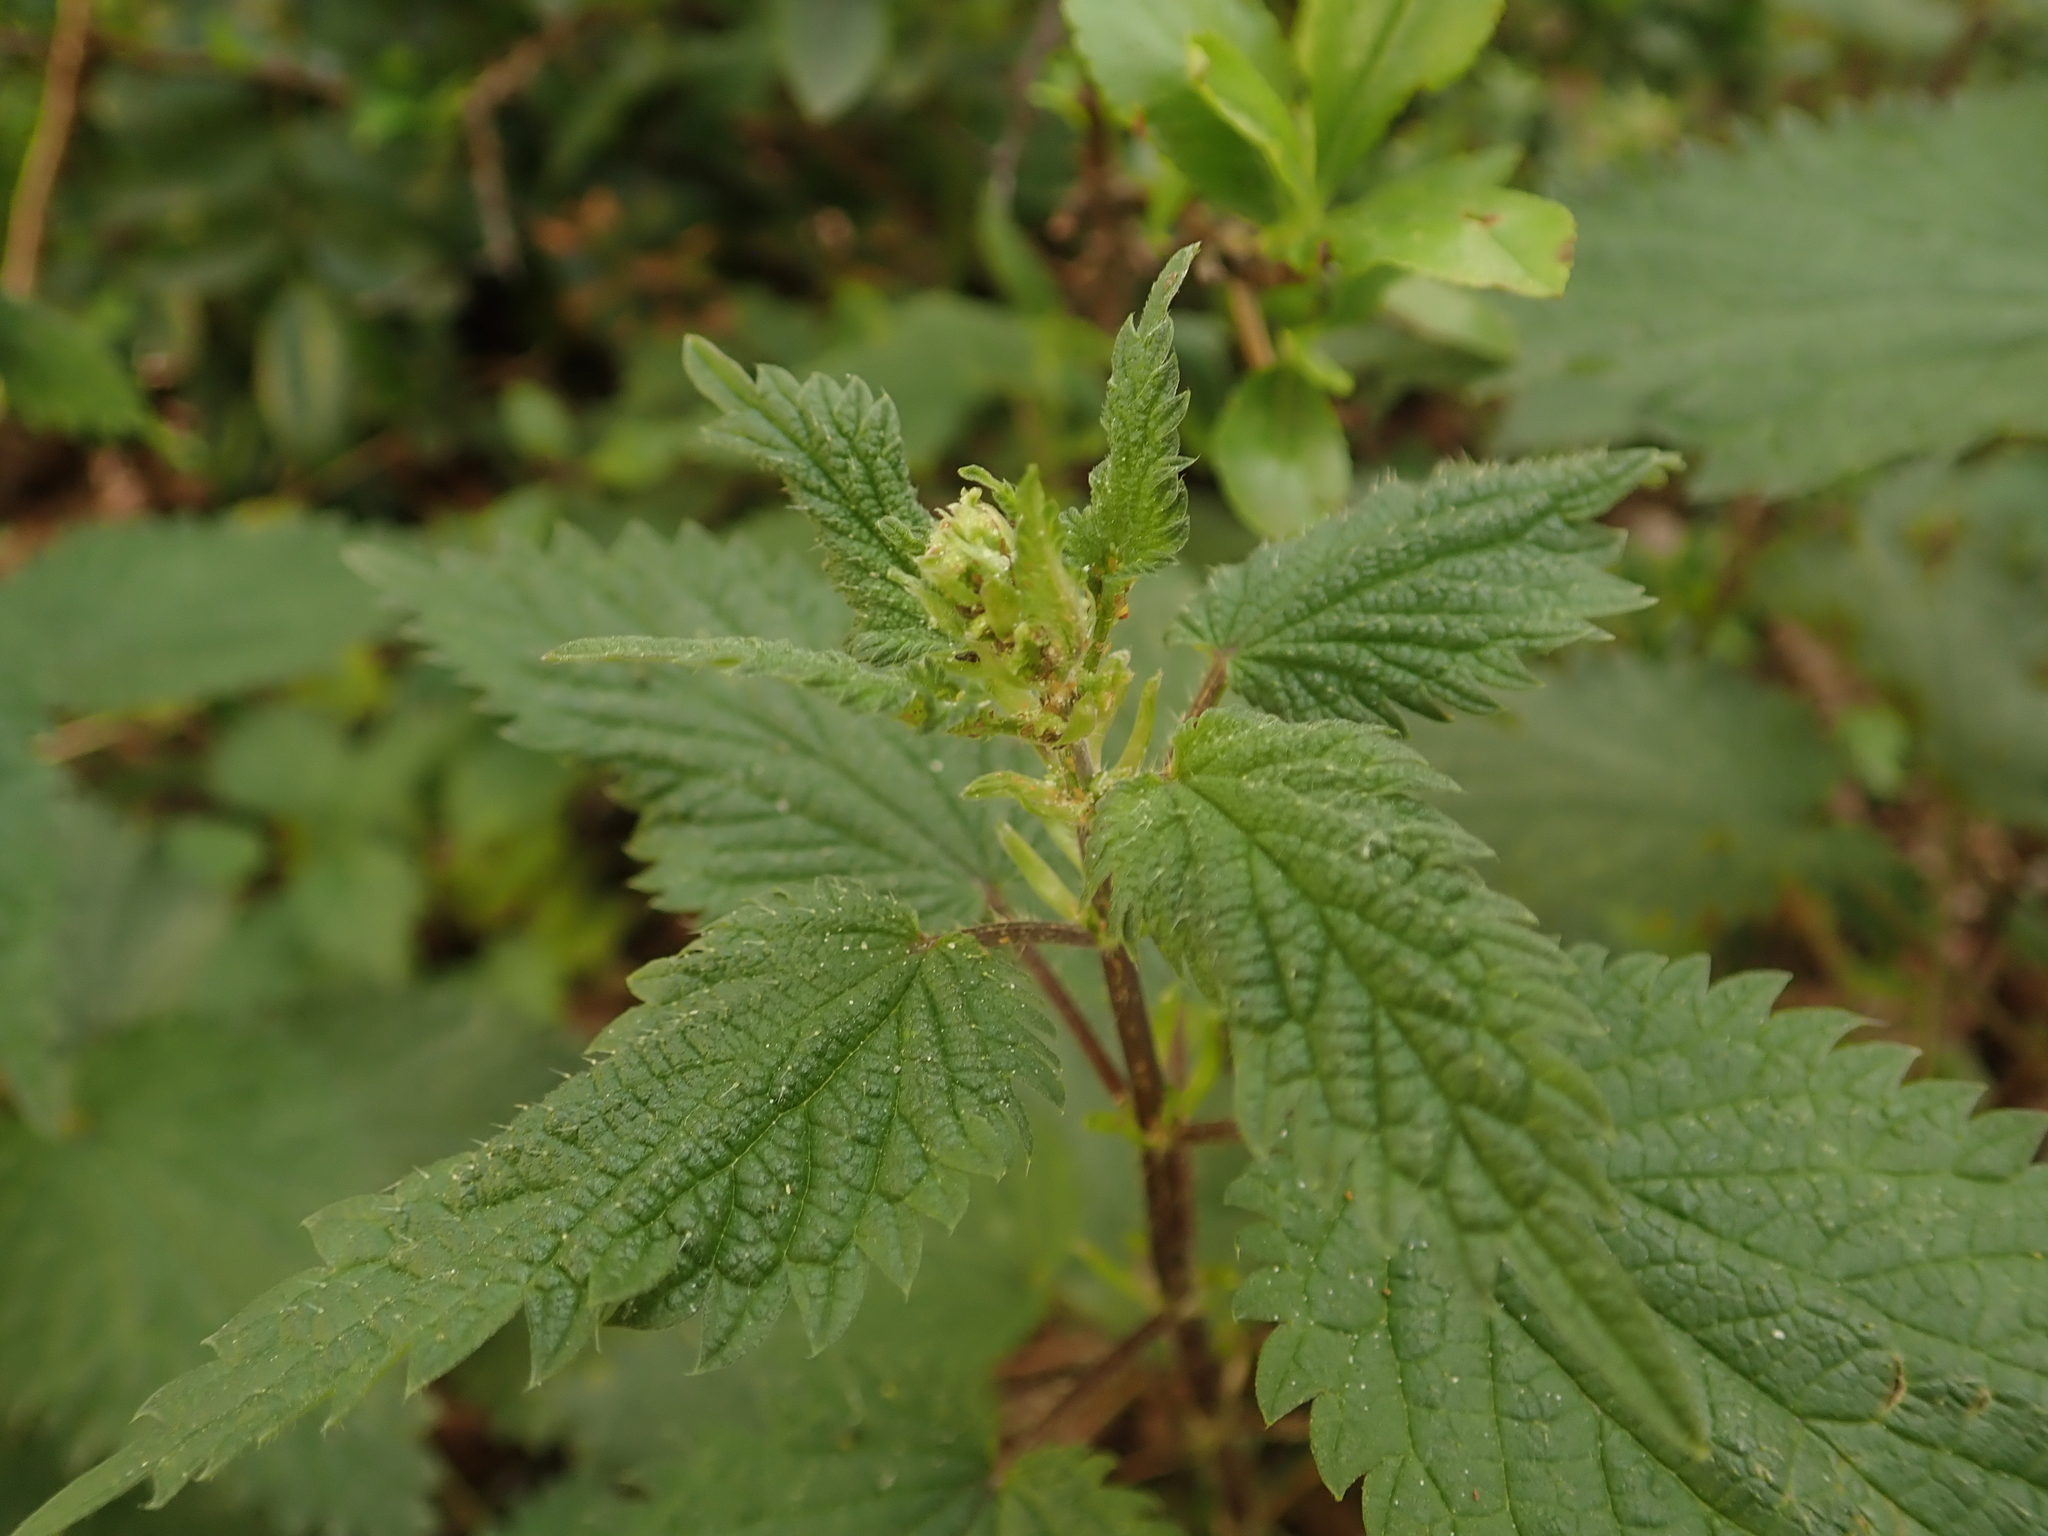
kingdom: Plantae
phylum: Tracheophyta
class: Magnoliopsida
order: Rosales
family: Urticaceae
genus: Urtica
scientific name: Urtica dioica
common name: Common nettle
